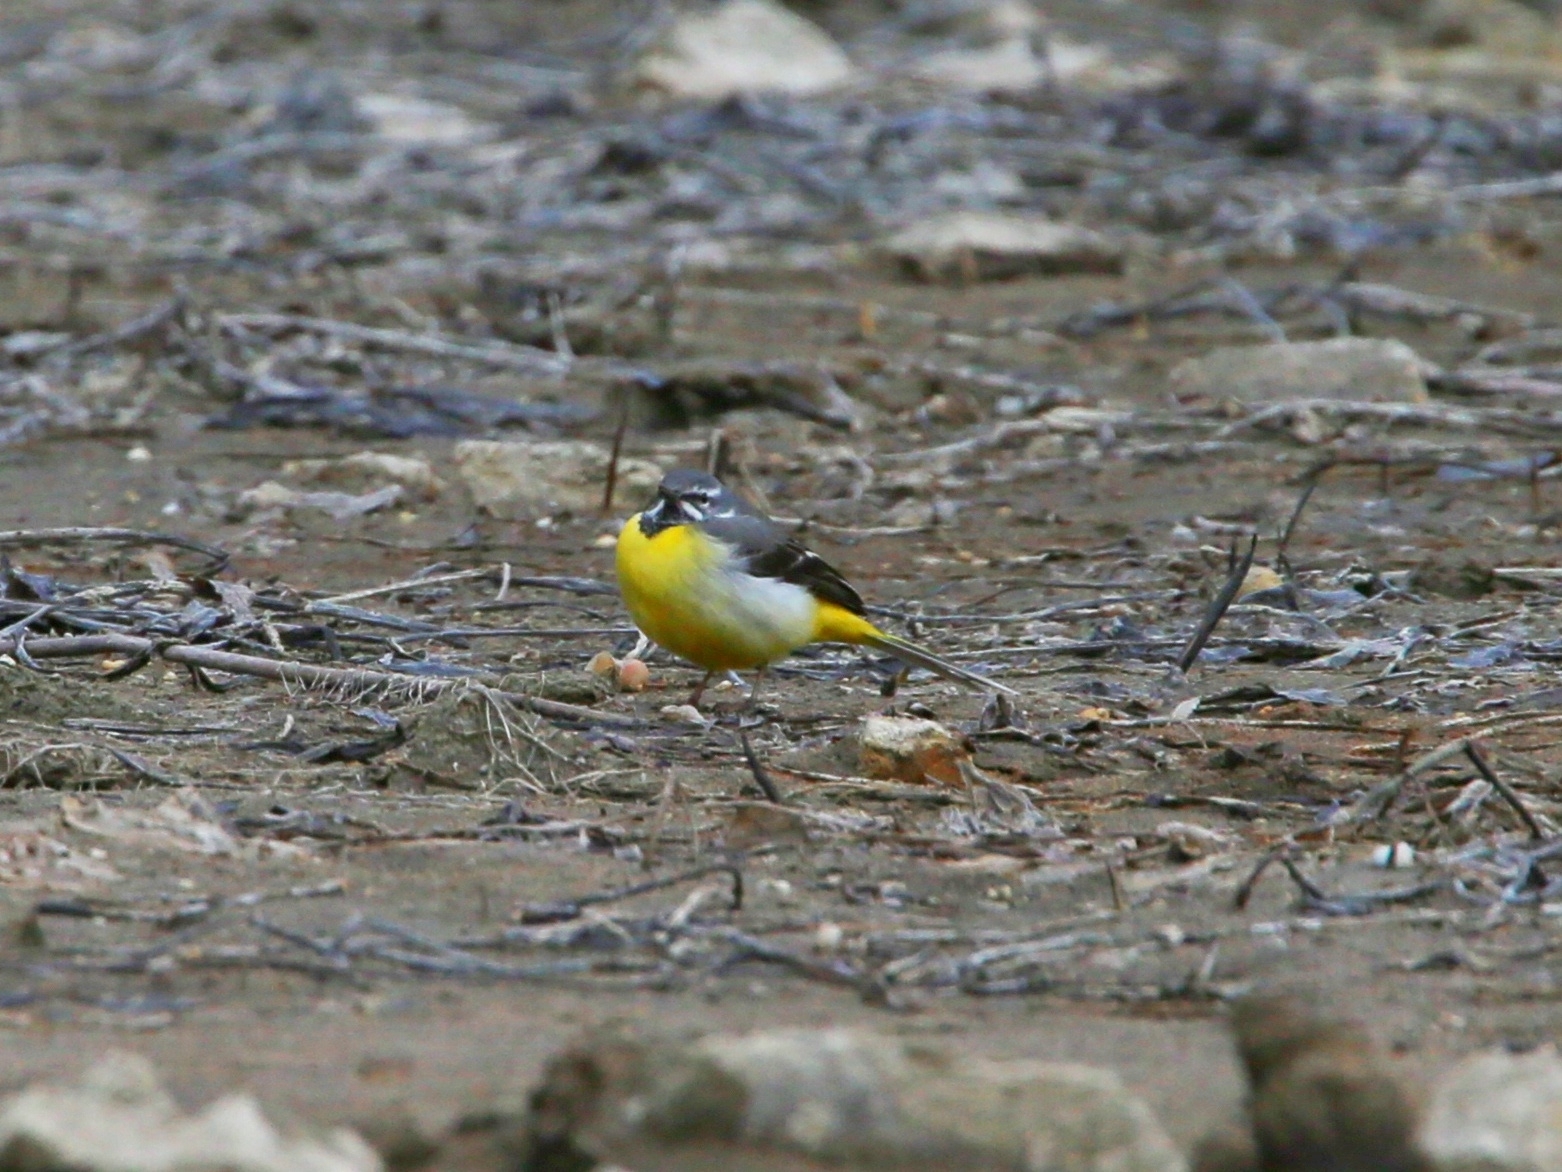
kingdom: Animalia
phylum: Chordata
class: Aves
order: Passeriformes
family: Motacillidae
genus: Motacilla
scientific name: Motacilla cinerea
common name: Grey wagtail
